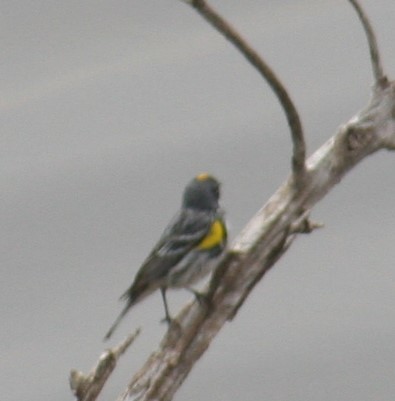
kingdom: Animalia
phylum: Chordata
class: Aves
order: Passeriformes
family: Parulidae
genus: Setophaga
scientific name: Setophaga coronata
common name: Myrtle warbler
